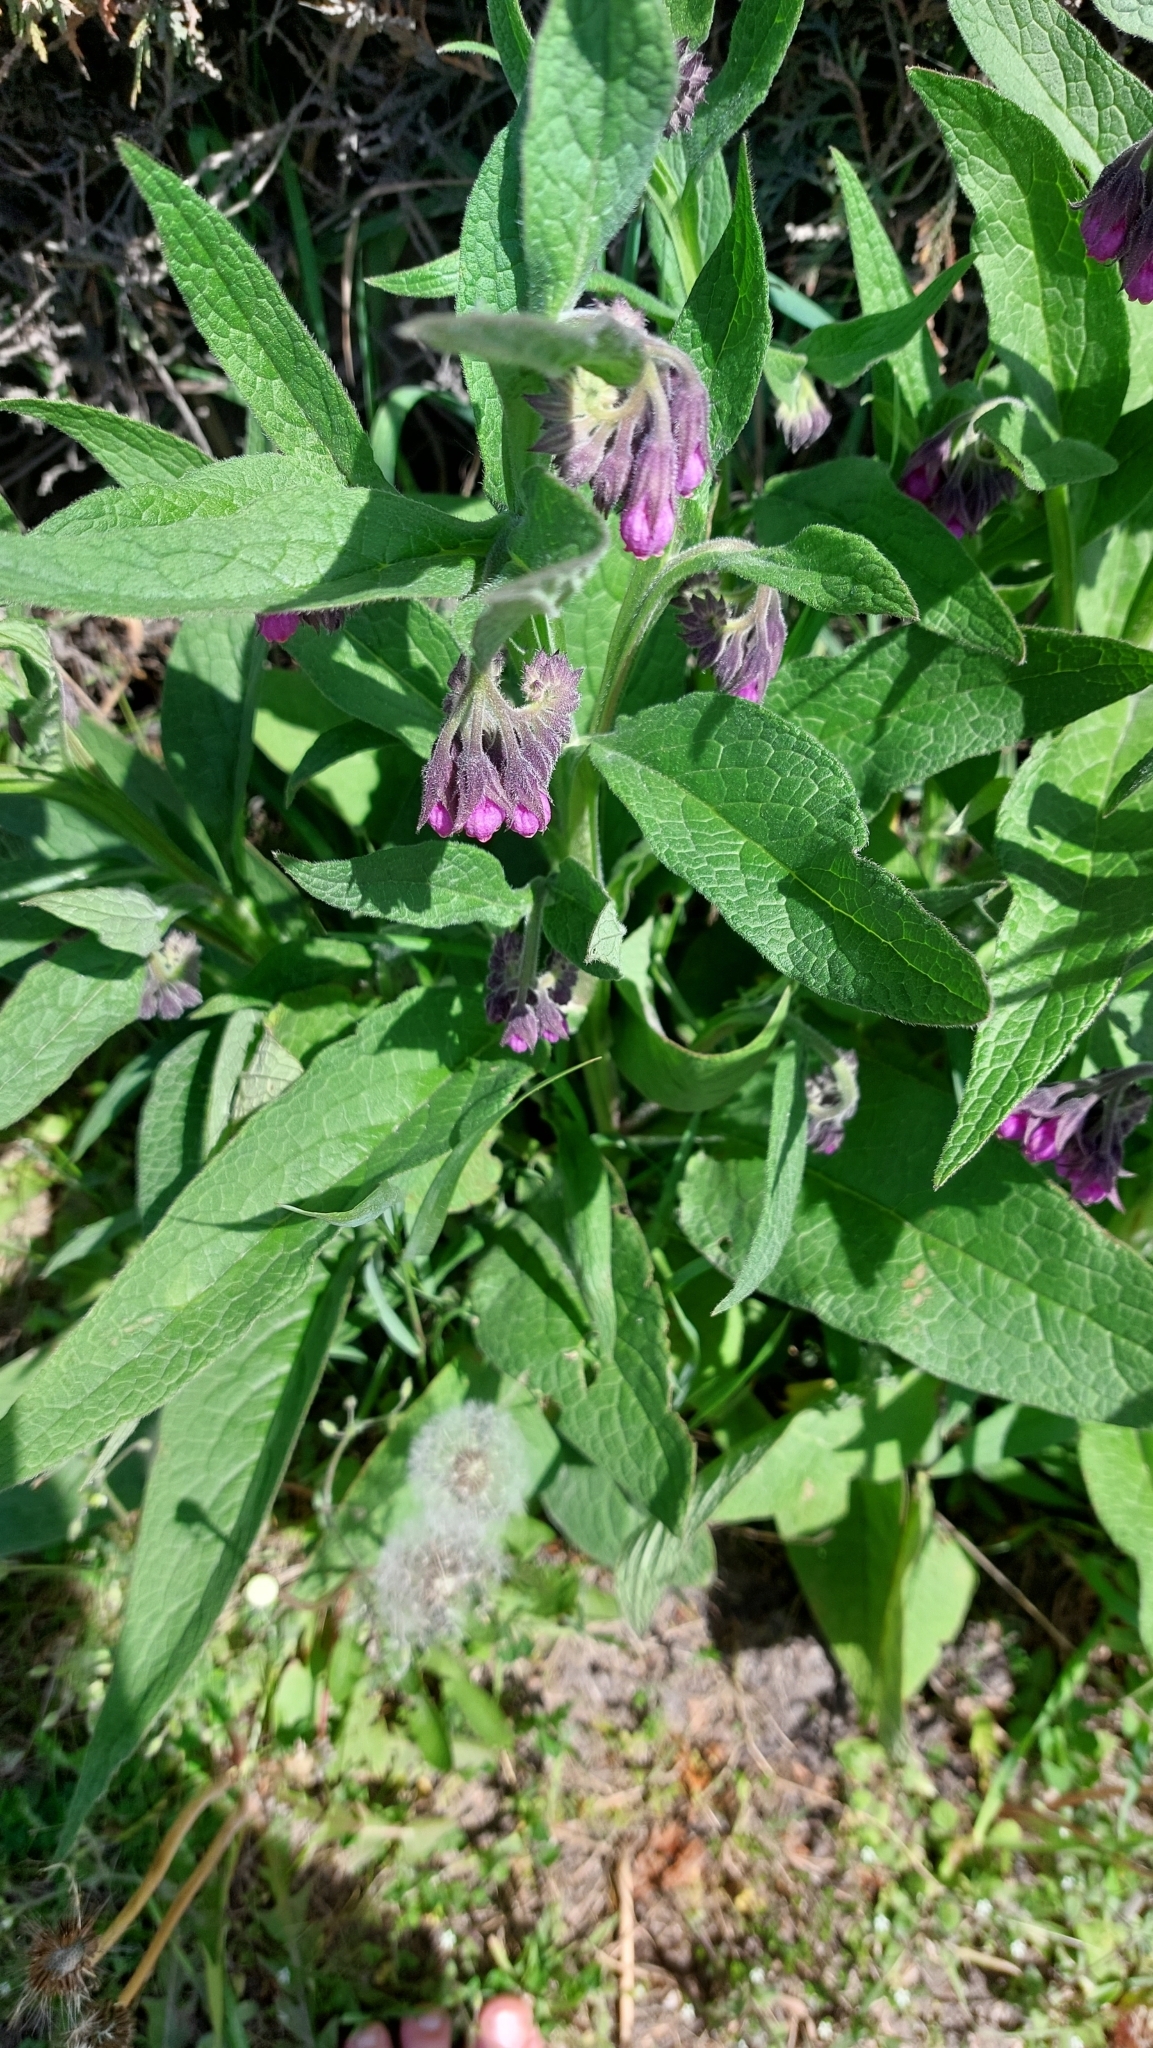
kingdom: Plantae
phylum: Tracheophyta
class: Magnoliopsida
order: Boraginales
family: Boraginaceae
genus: Symphytum
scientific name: Symphytum officinale
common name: Common comfrey
